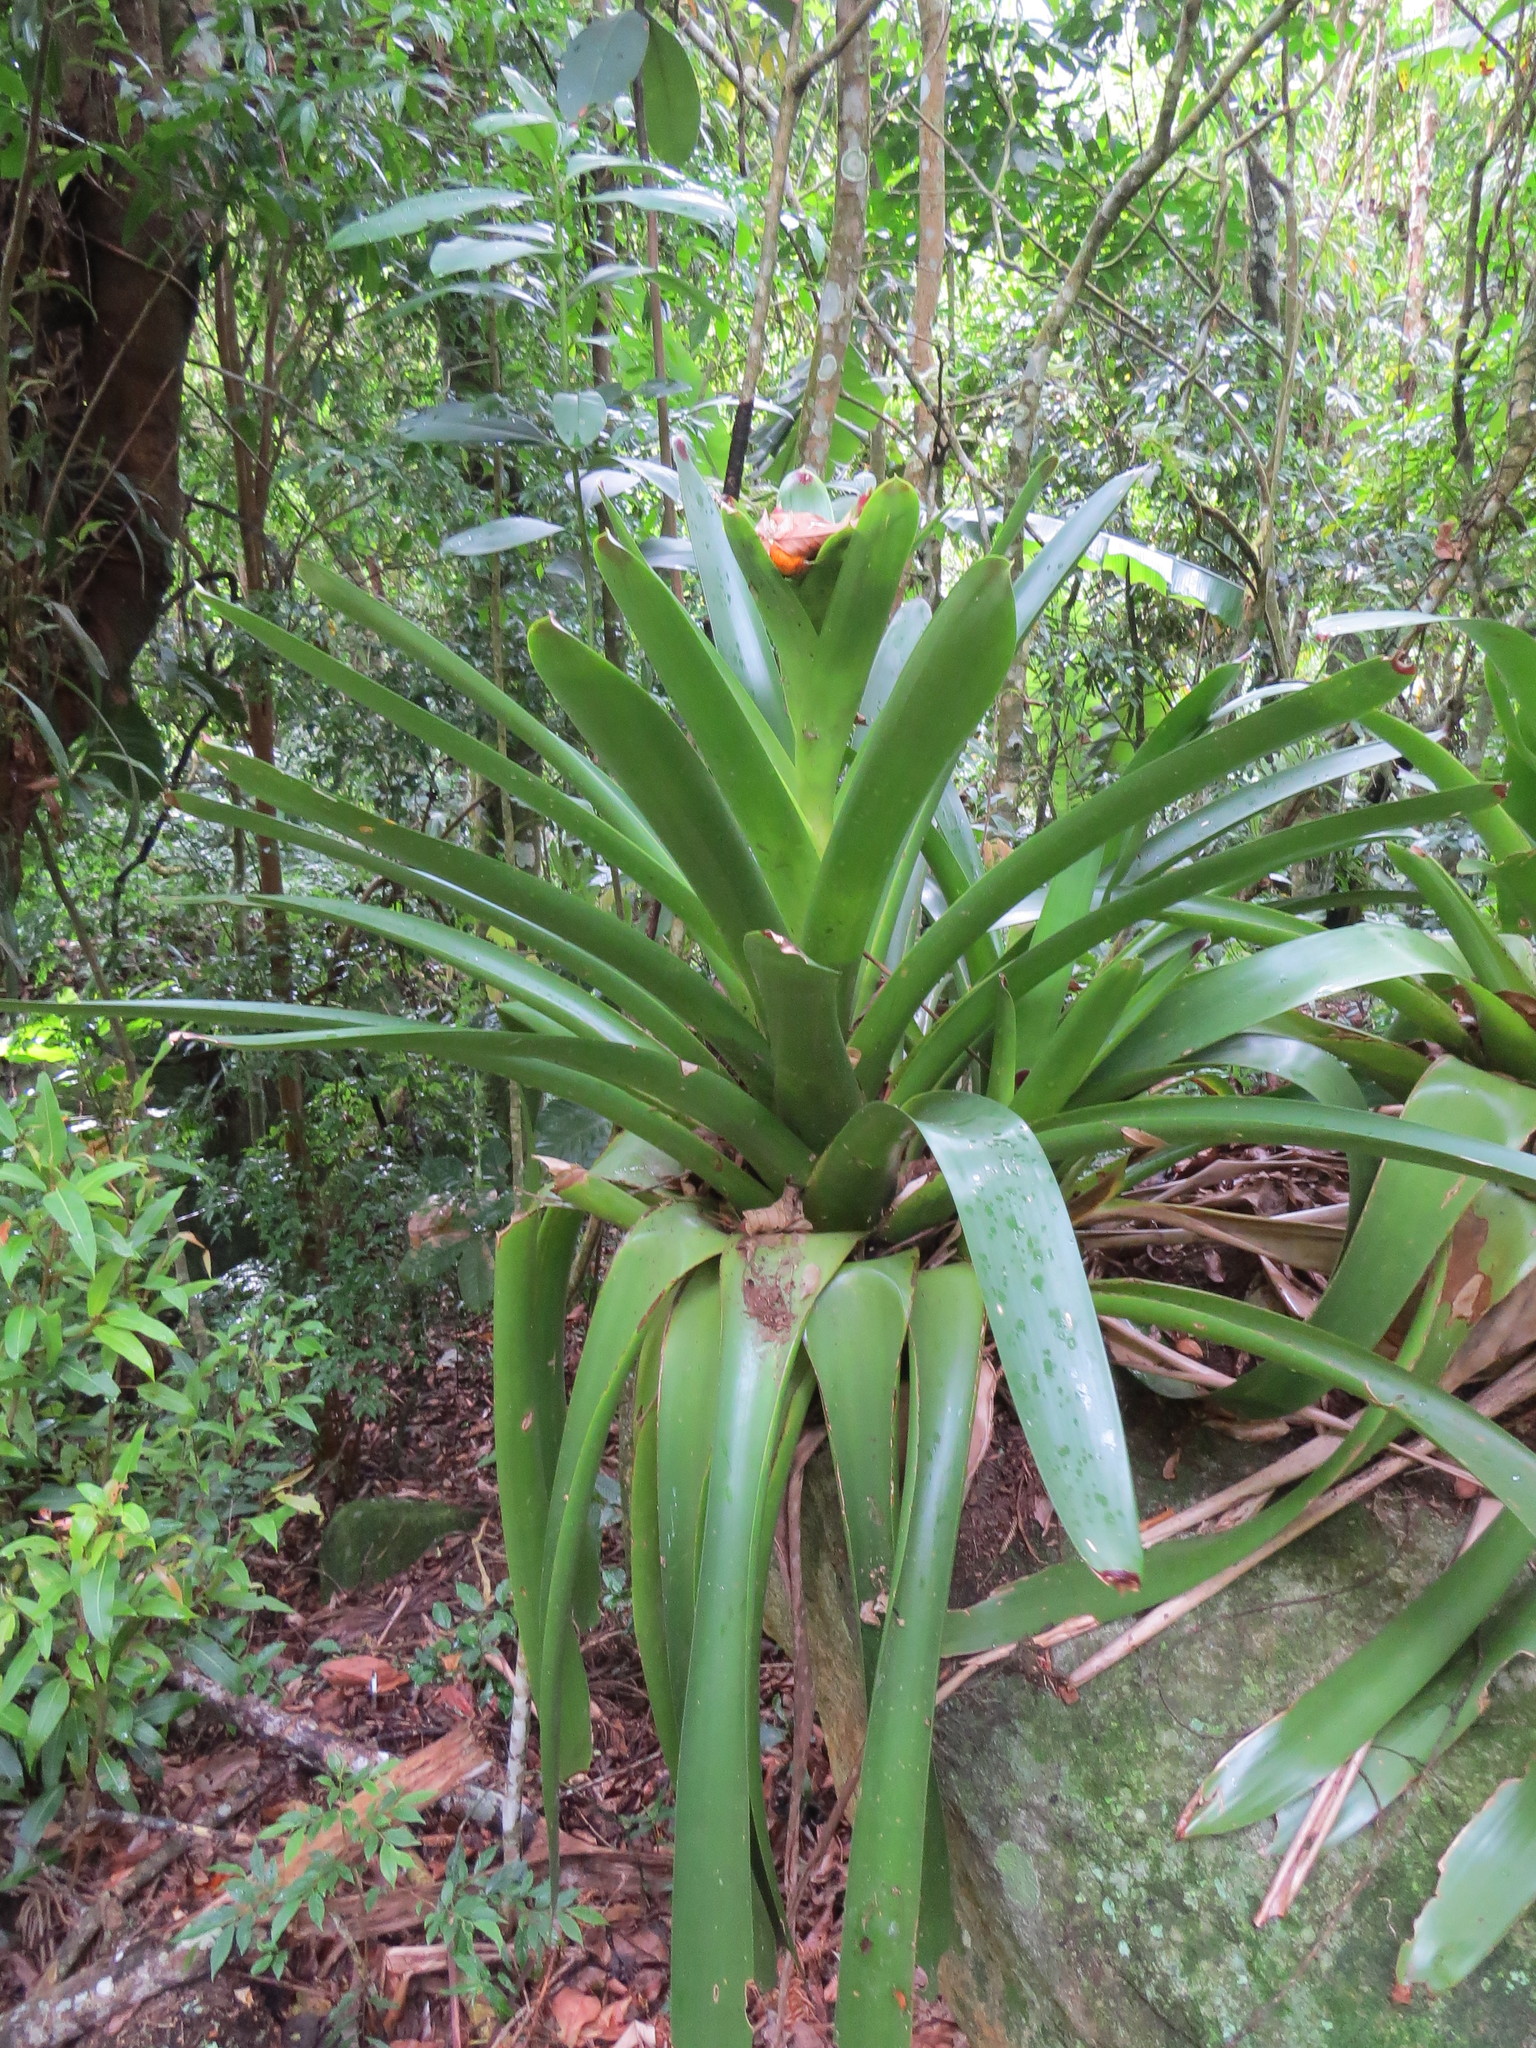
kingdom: Plantae
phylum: Tracheophyta
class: Liliopsida
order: Poales
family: Bromeliaceae
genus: Vriesea
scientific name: Vriesea philippocoburgi
